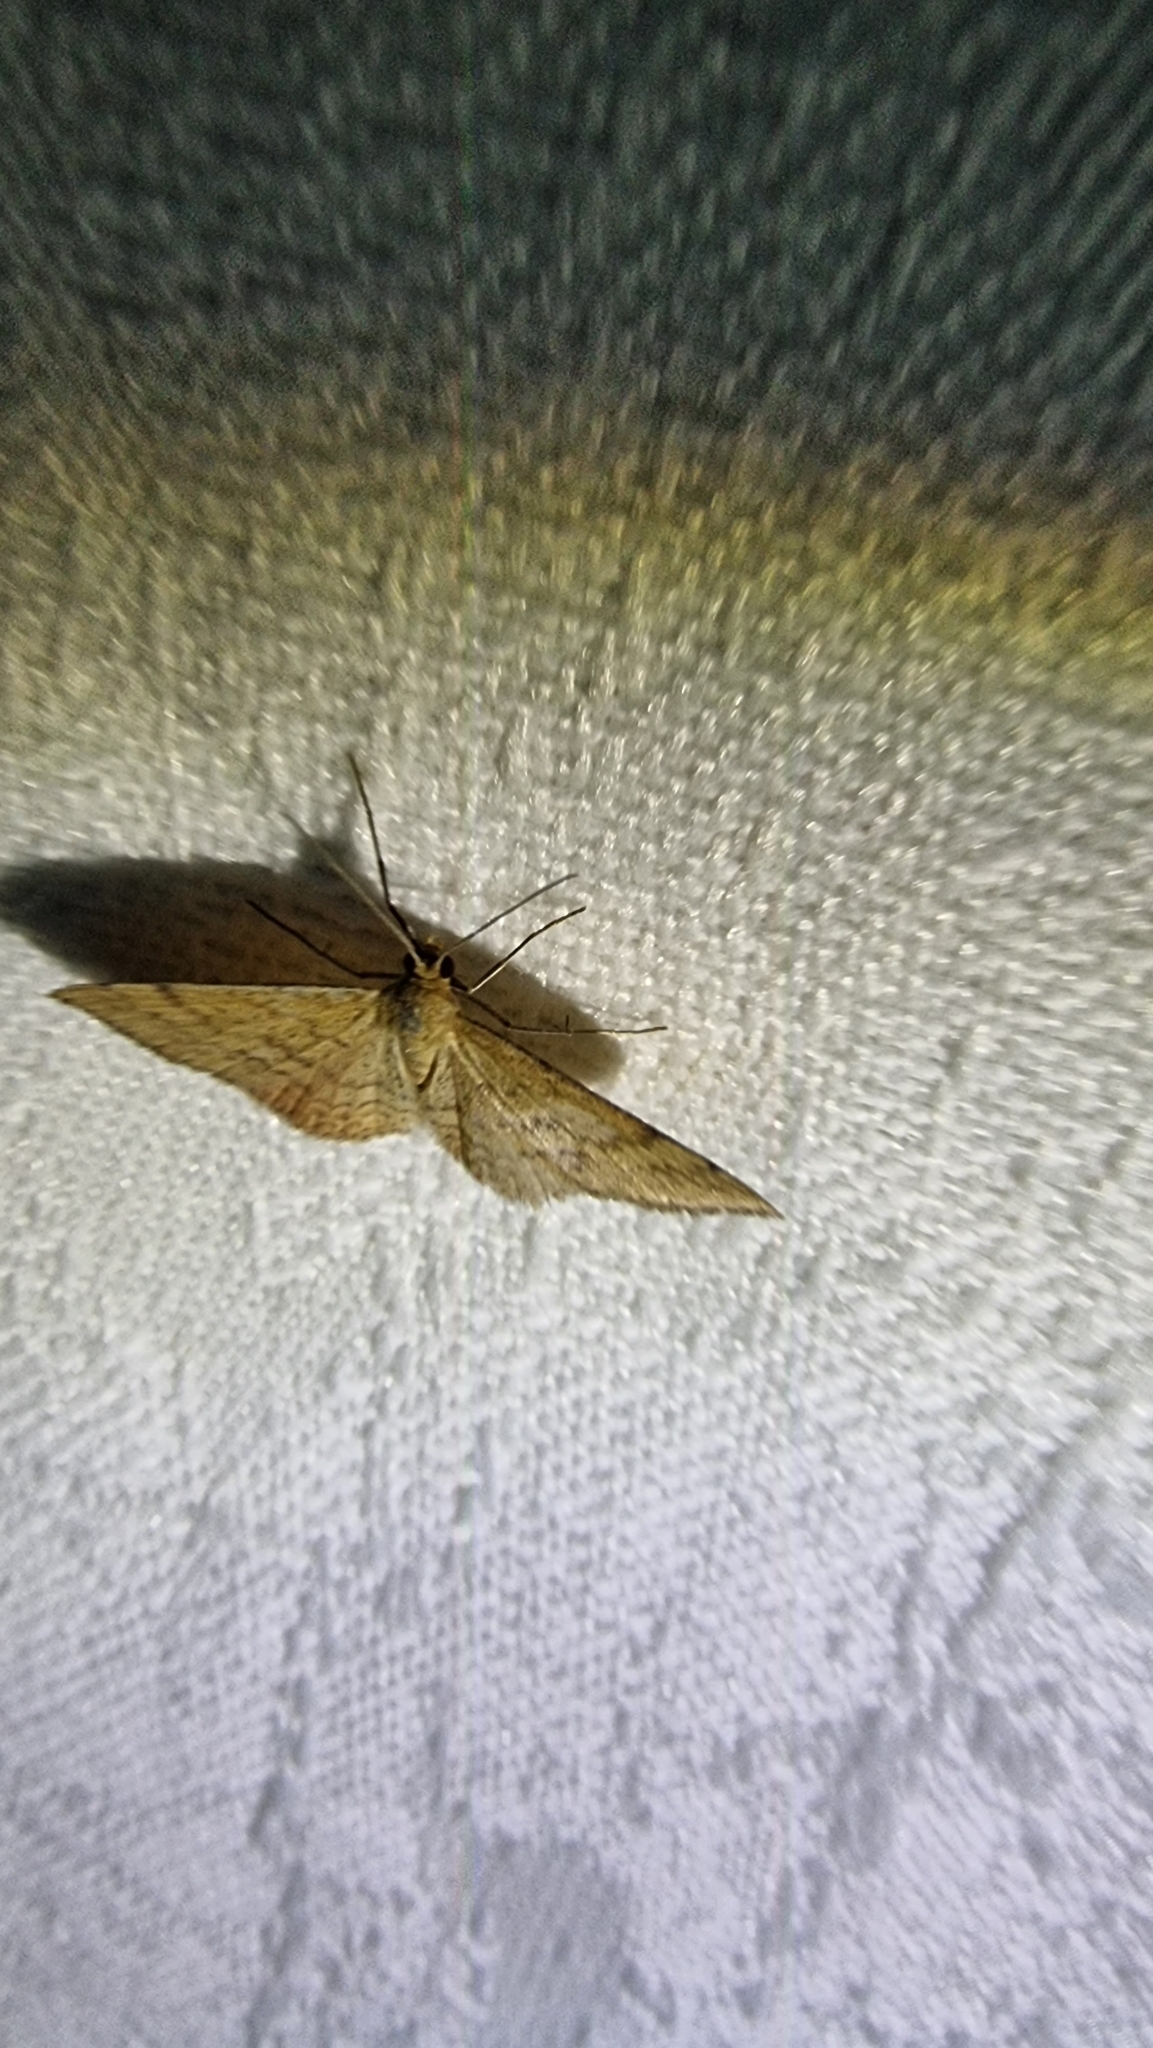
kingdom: Animalia
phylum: Arthropoda
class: Insecta
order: Lepidoptera
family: Geometridae
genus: Scopula
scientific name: Scopula rubraria
